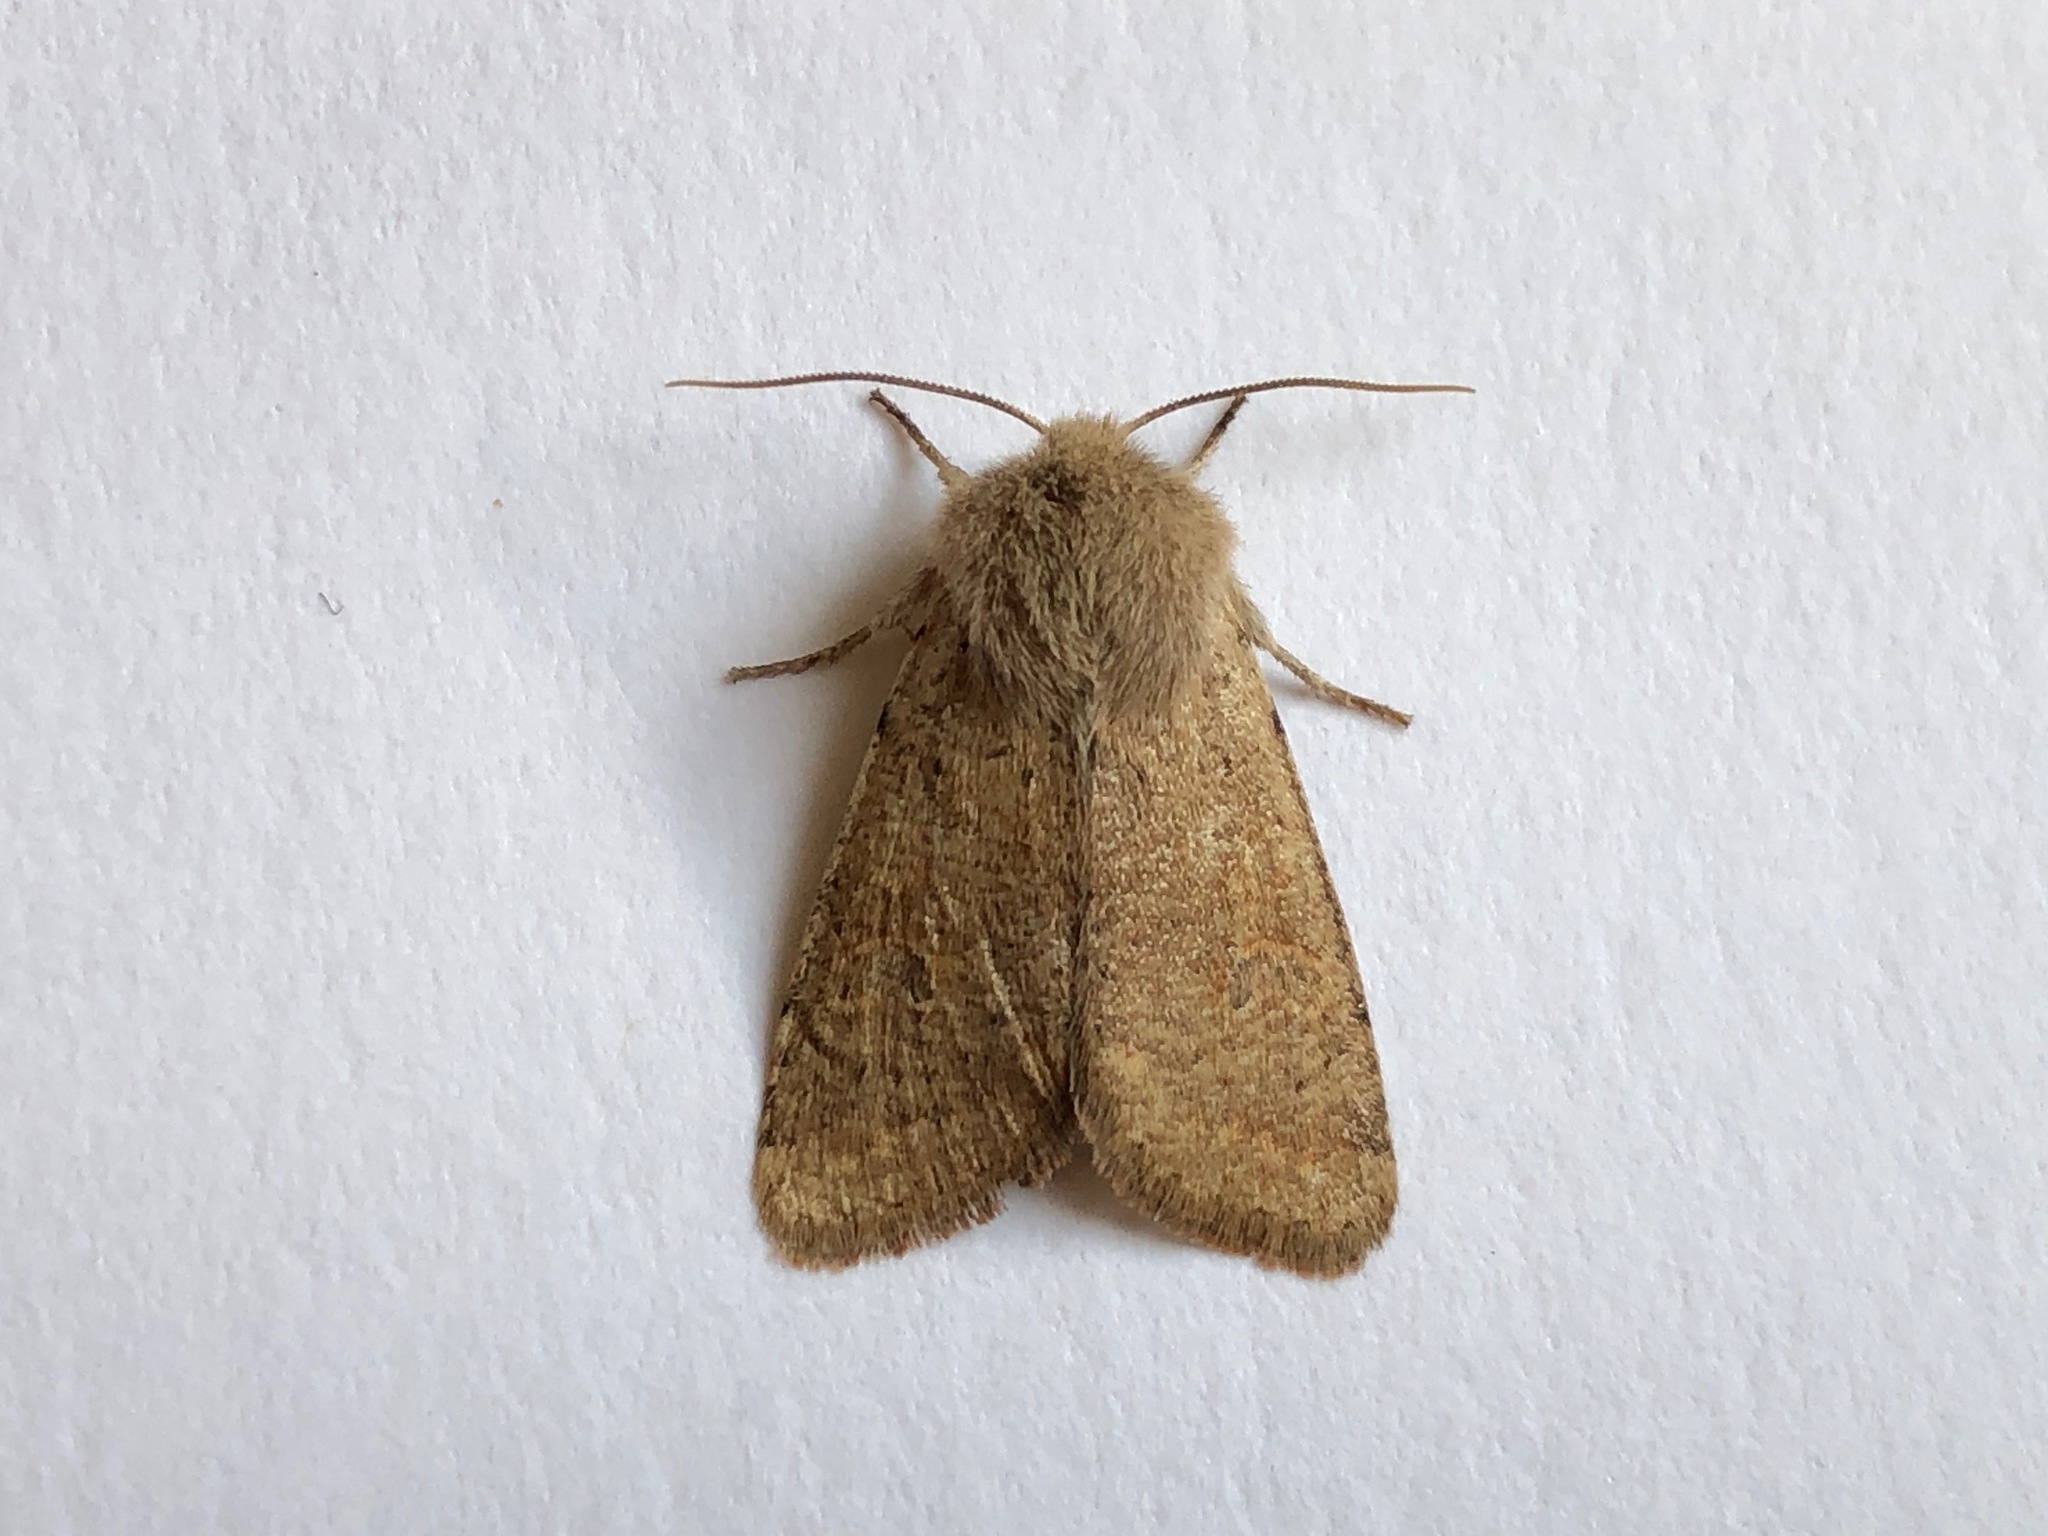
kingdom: Animalia
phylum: Arthropoda
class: Insecta
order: Lepidoptera
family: Noctuidae
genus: Orthosia
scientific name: Orthosia cruda
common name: Small quaker
